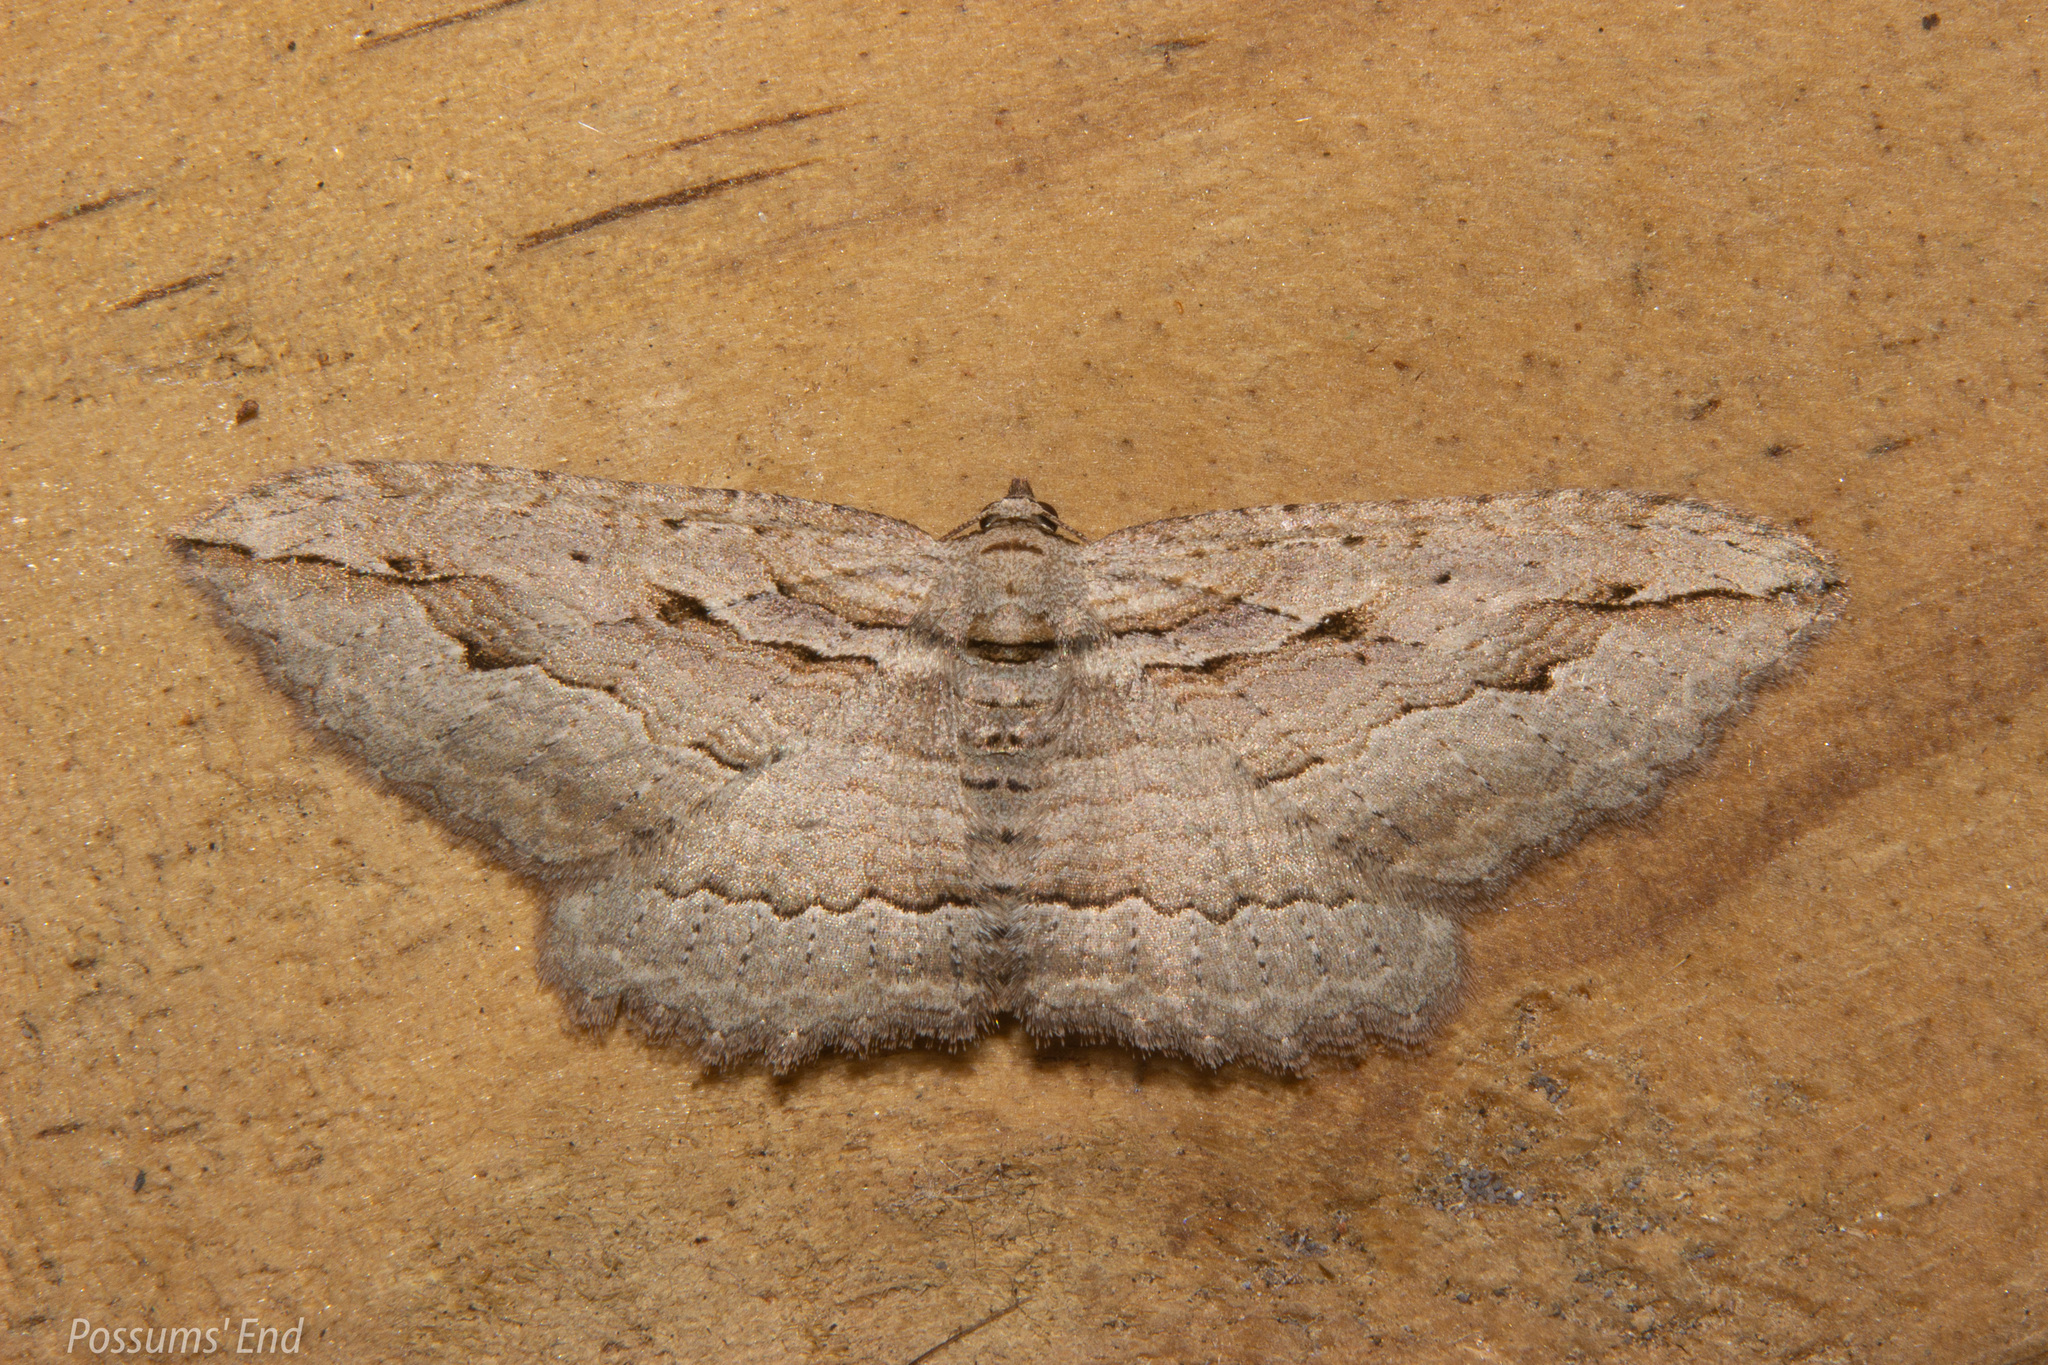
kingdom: Animalia
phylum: Arthropoda
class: Insecta
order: Lepidoptera
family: Geometridae
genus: Austrocidaria
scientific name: Austrocidaria gobiata
